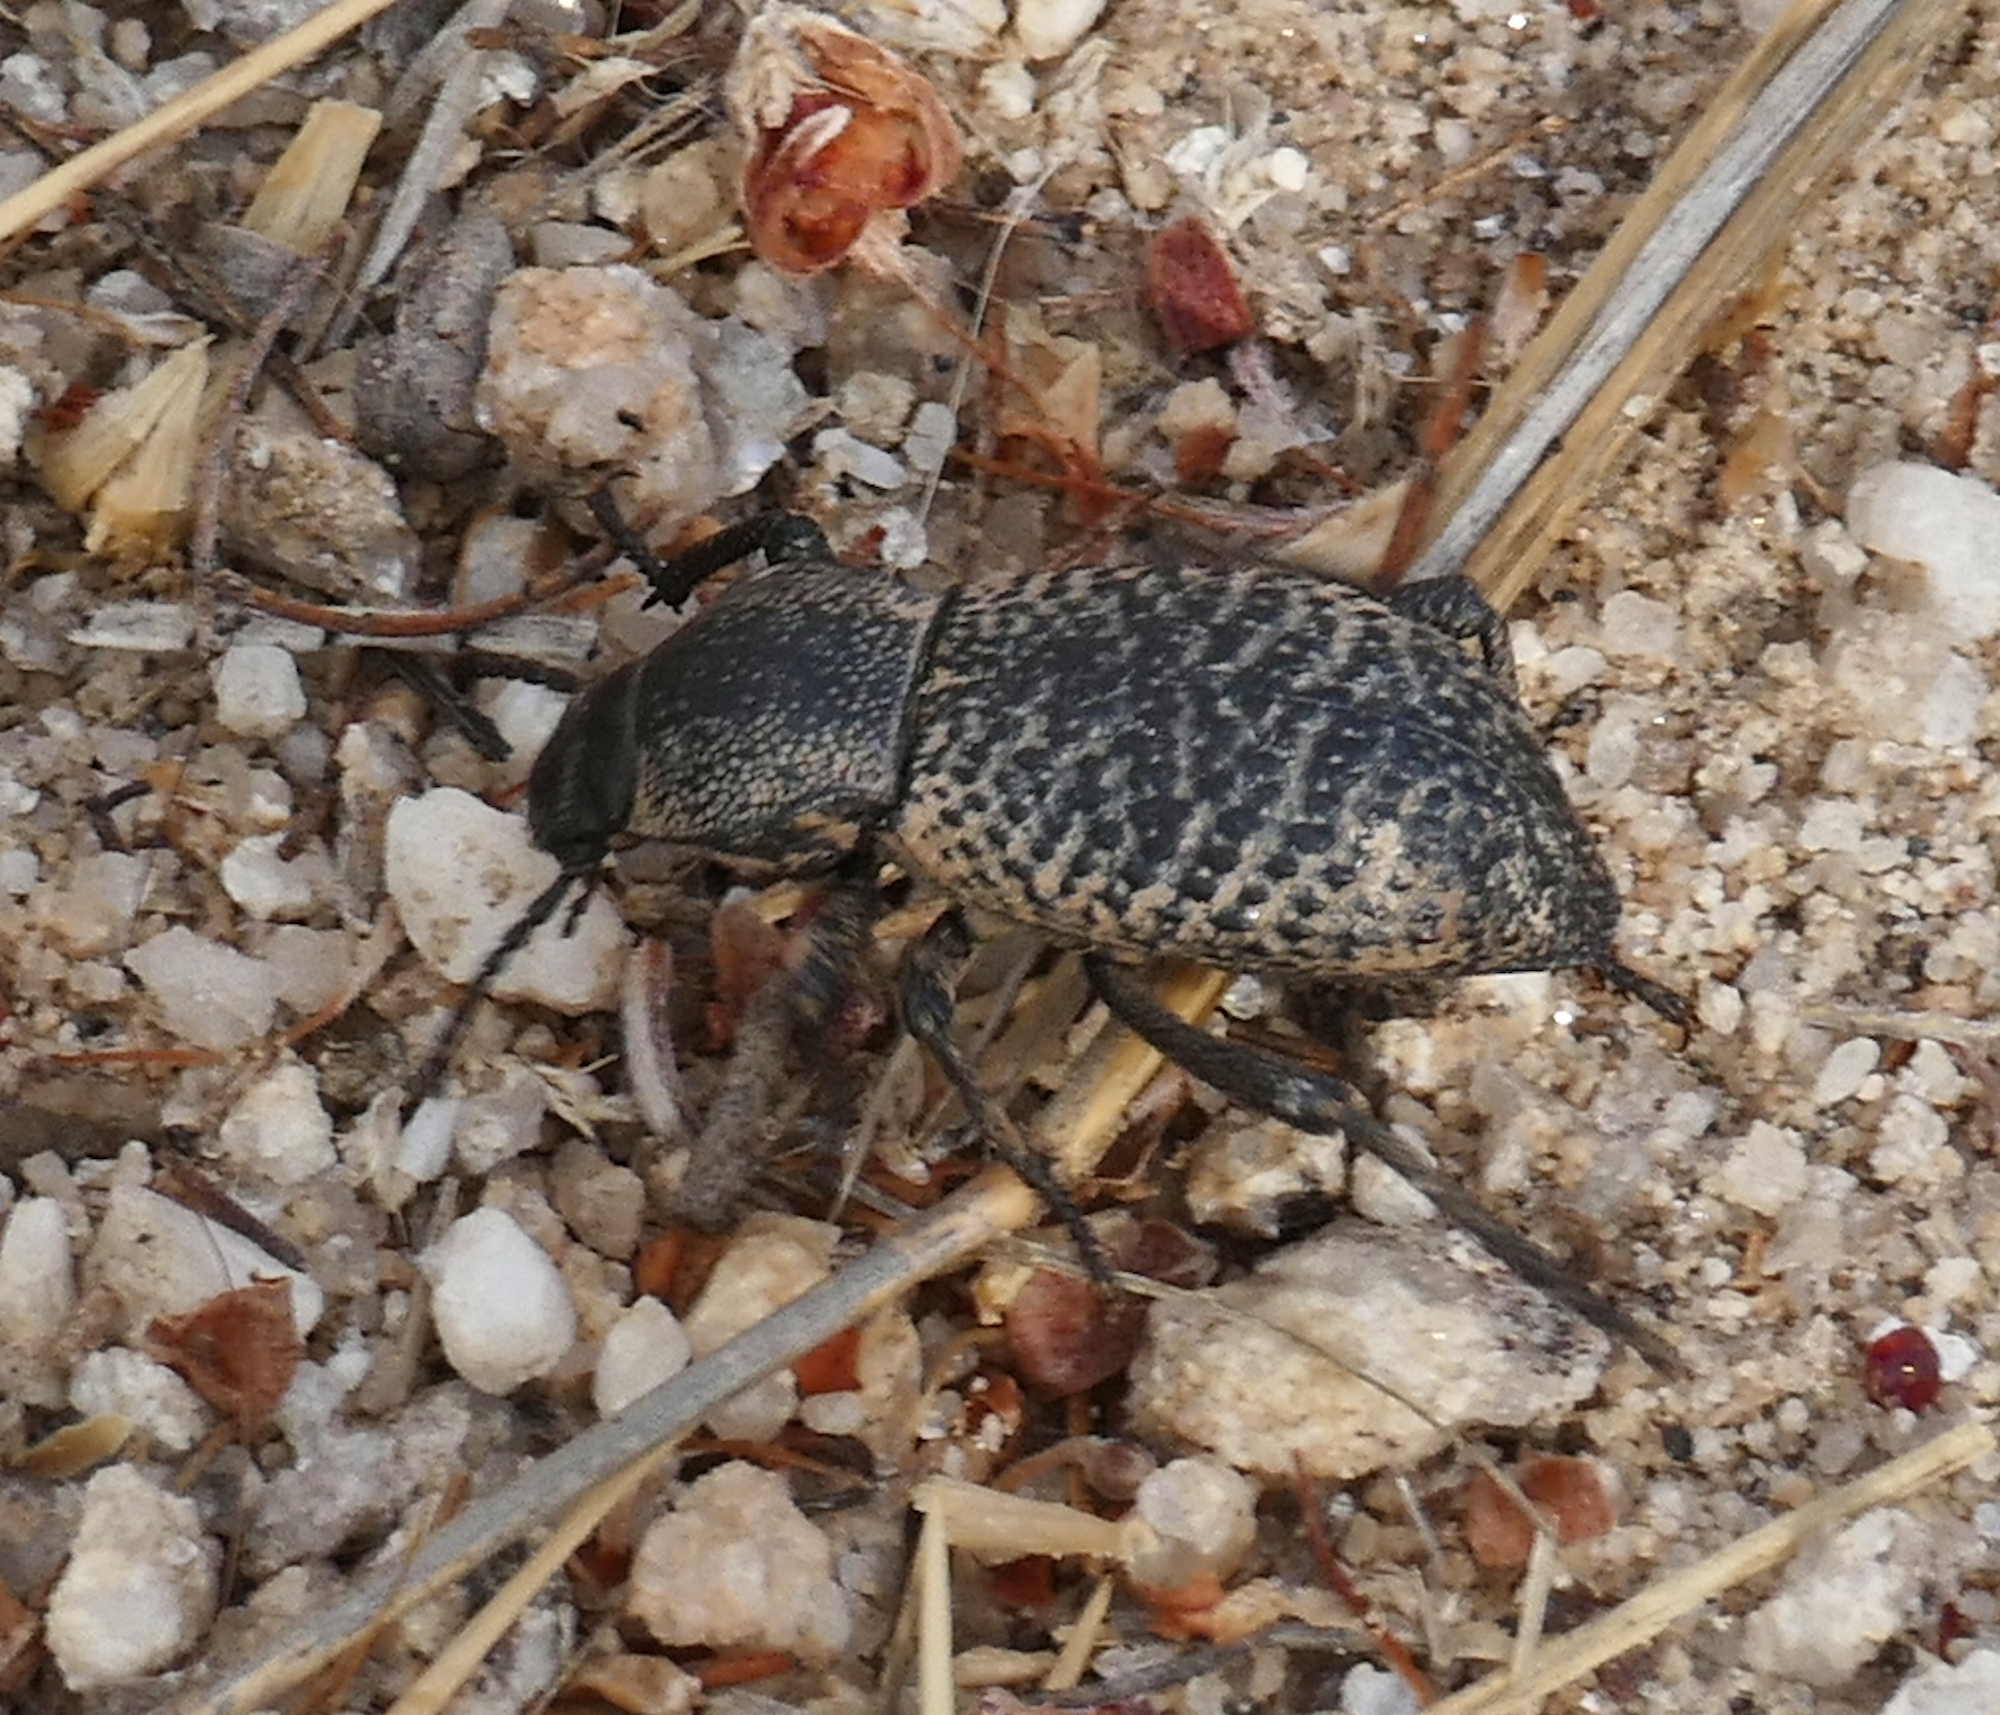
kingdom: Animalia
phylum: Arthropoda
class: Insecta
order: Coleoptera
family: Tenebrionidae
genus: Cryptoglossa
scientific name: Cryptoglossa variolosa
